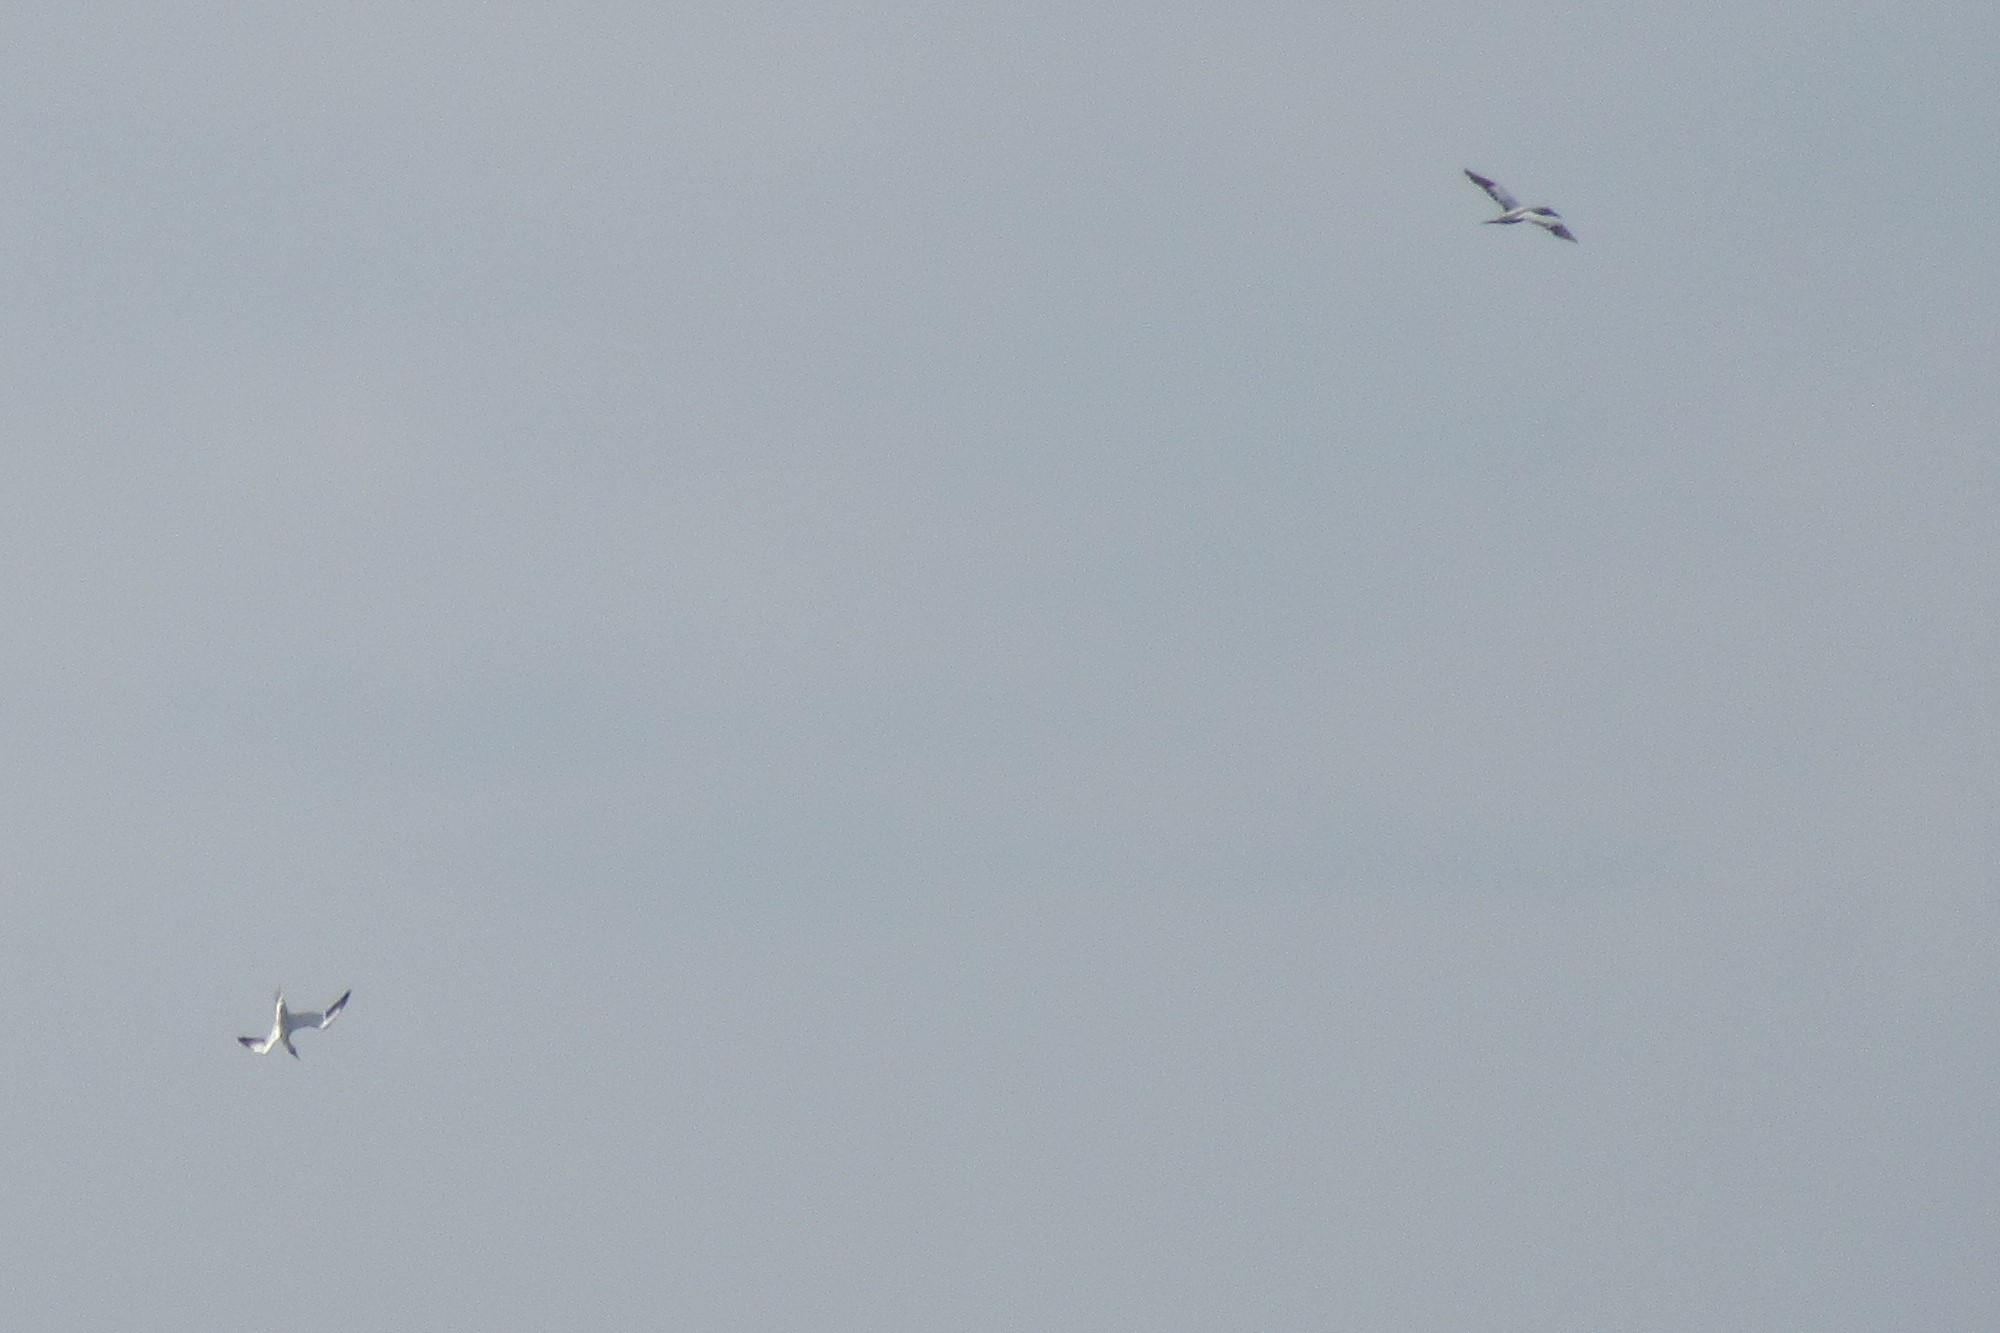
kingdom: Animalia
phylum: Chordata
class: Aves
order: Suliformes
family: Sulidae
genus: Morus
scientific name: Morus bassanus
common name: Northern gannet
